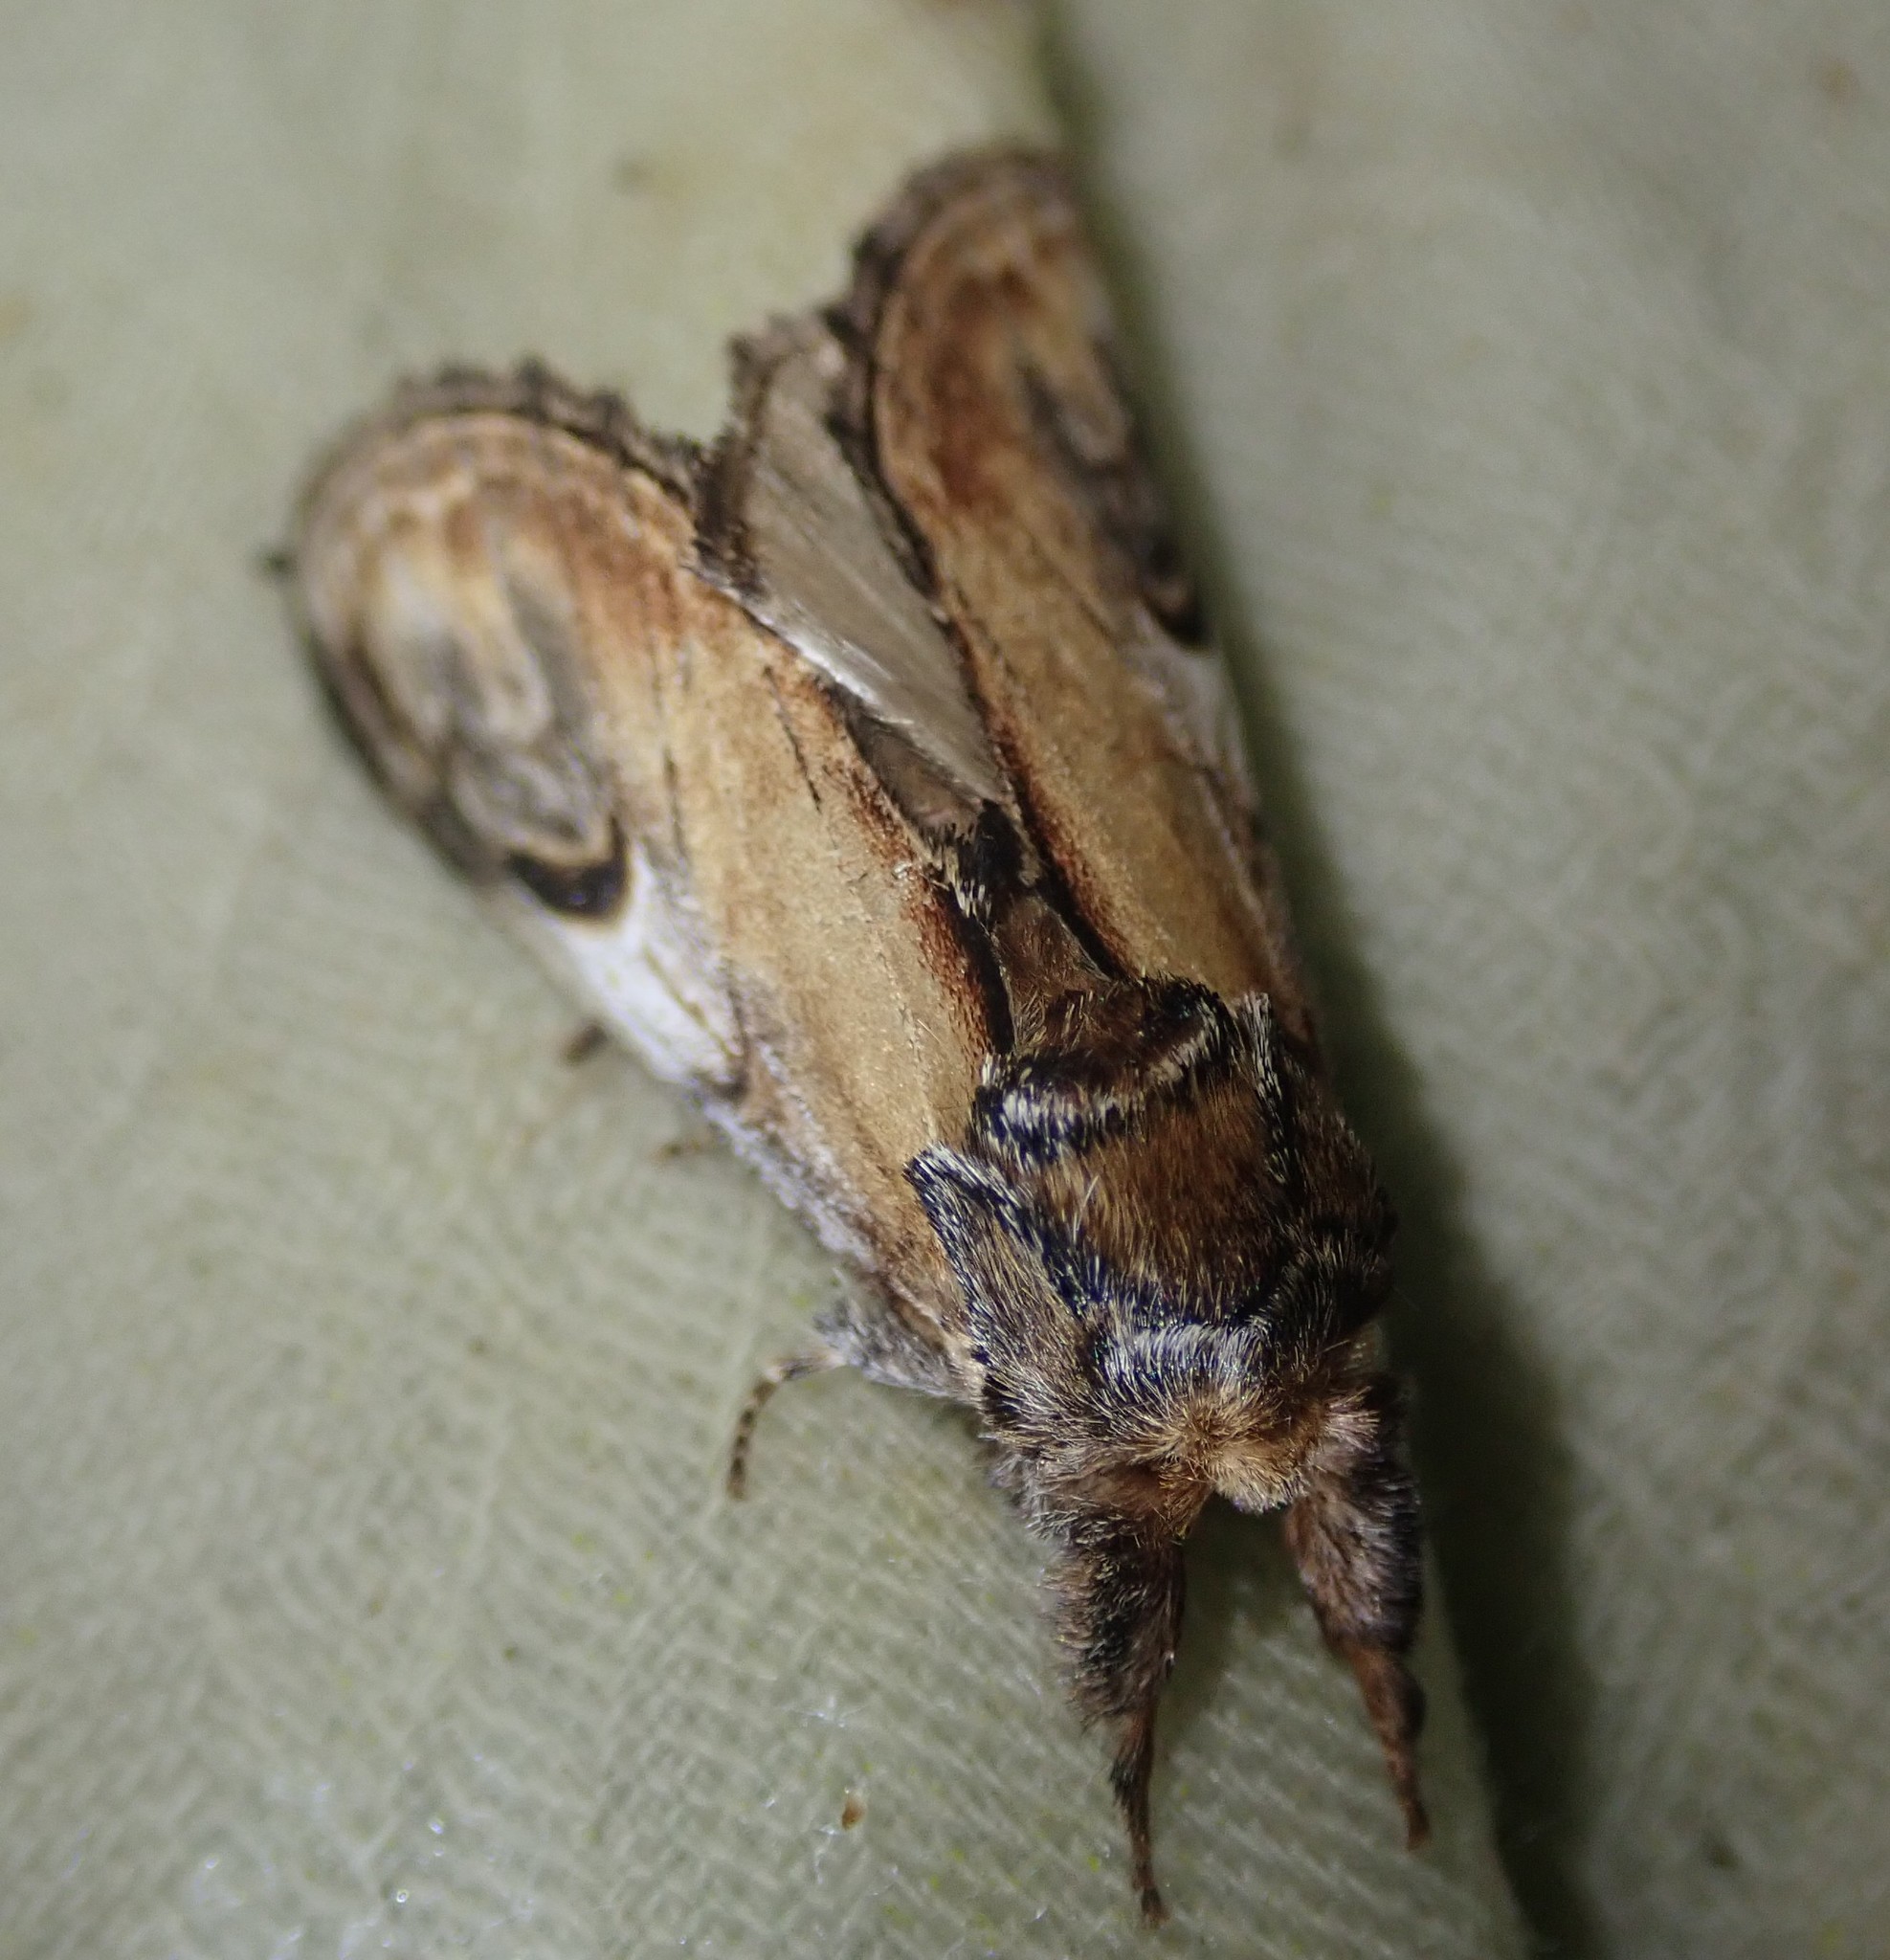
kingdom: Animalia
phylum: Arthropoda
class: Insecta
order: Lepidoptera
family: Notodontidae
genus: Notodonta
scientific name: Notodonta ziczac
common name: Pebble prominent
